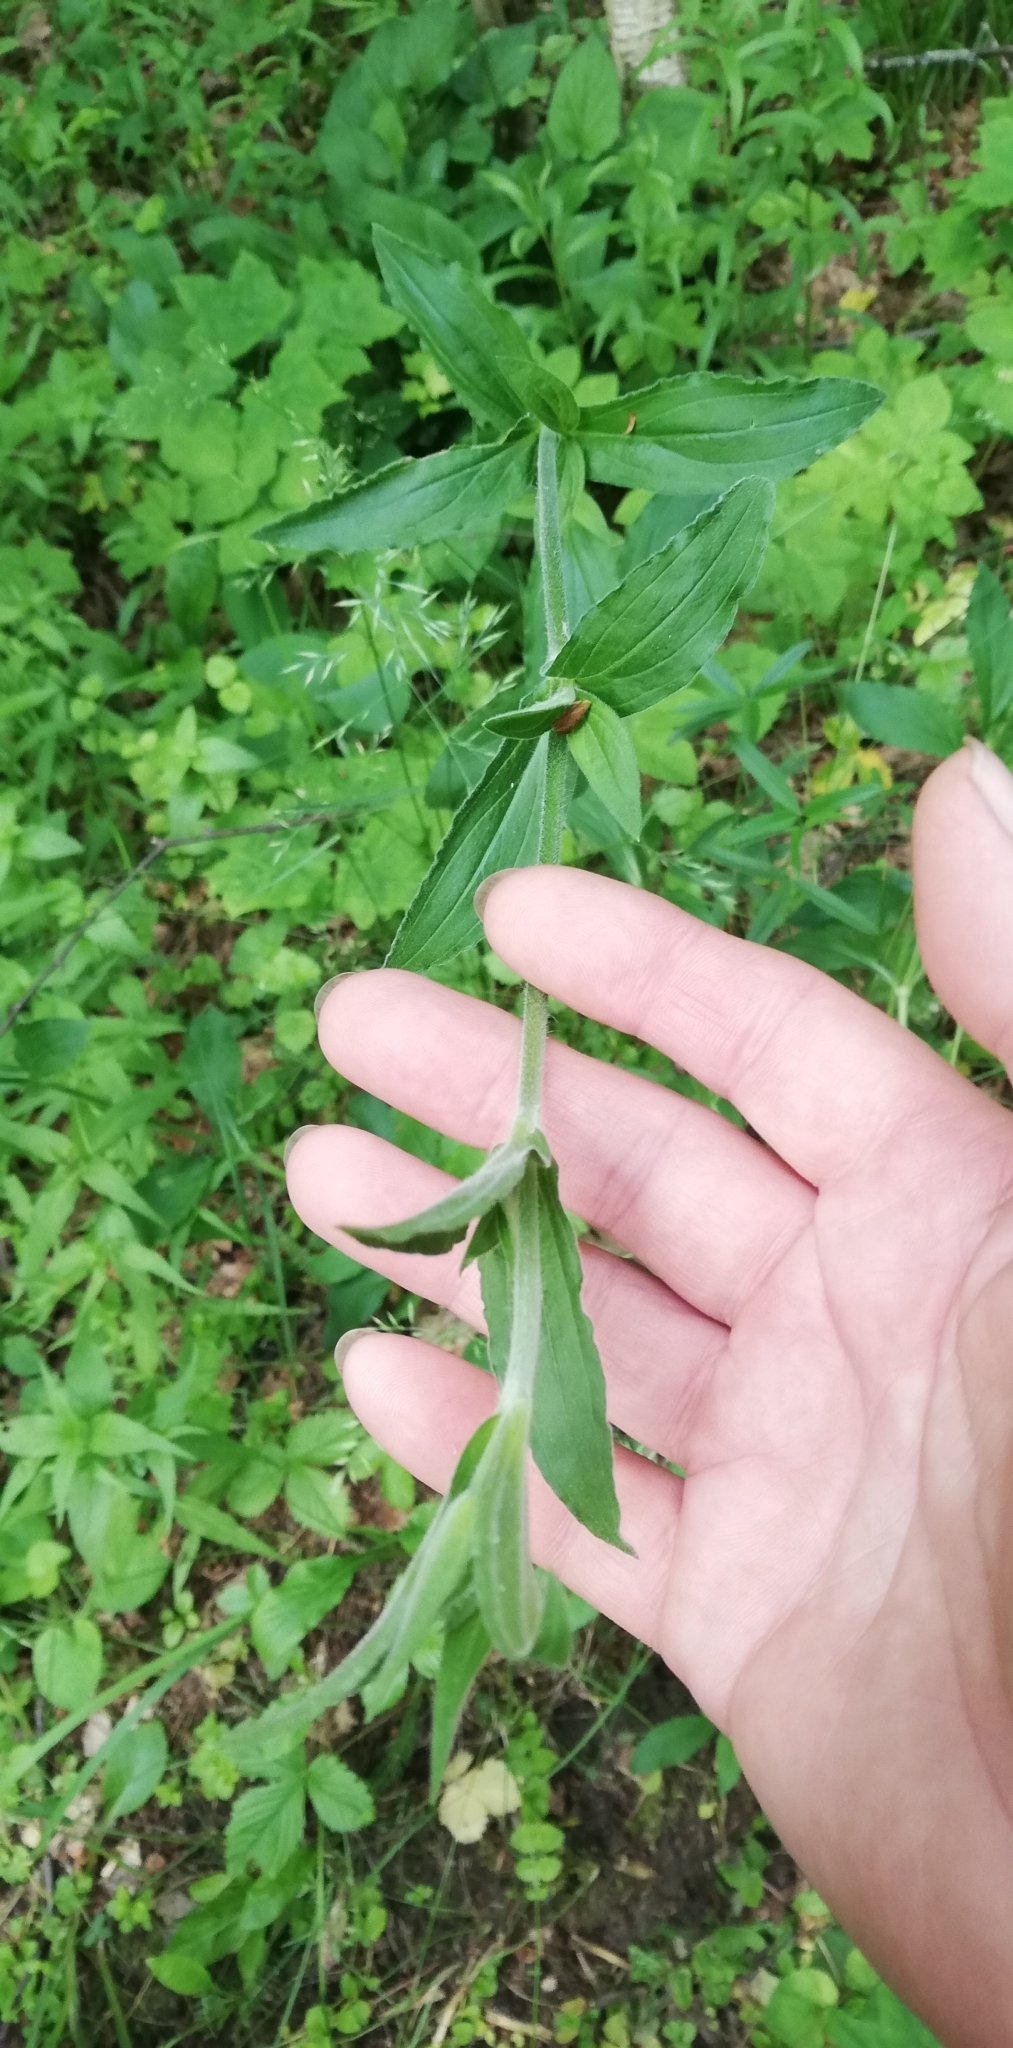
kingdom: Plantae
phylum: Tracheophyta
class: Magnoliopsida
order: Caryophyllales
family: Caryophyllaceae
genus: Silene
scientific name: Silene dioica
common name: Red campion
